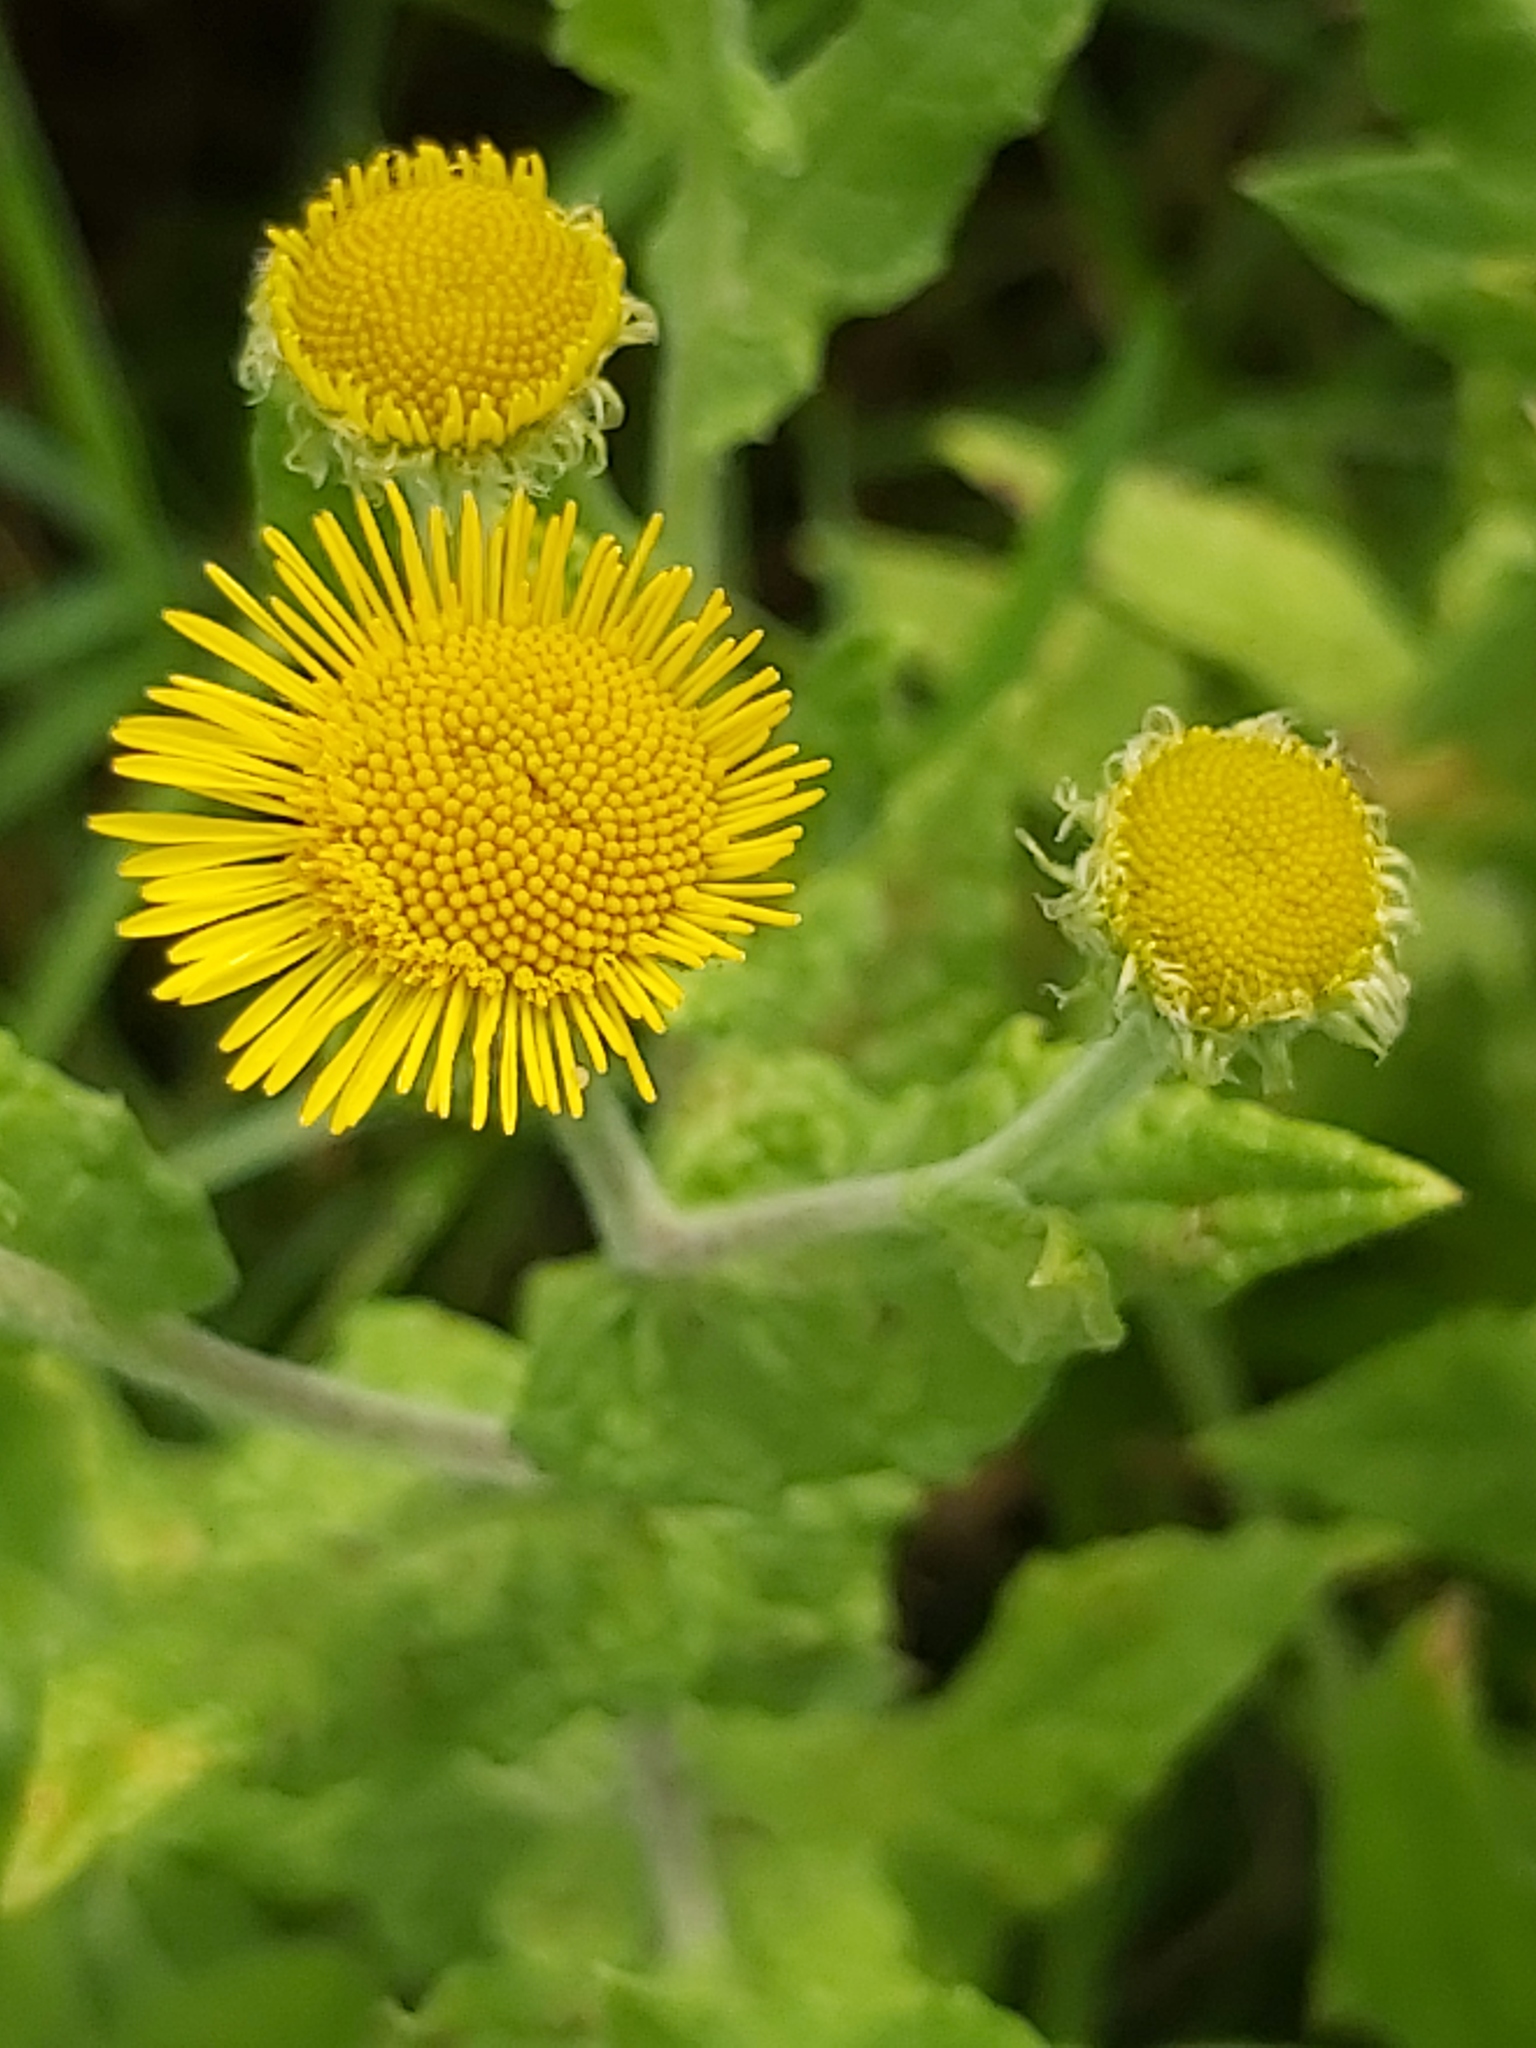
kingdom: Plantae
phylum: Tracheophyta
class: Magnoliopsida
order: Asterales
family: Asteraceae
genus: Pulicaria
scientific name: Pulicaria dysenterica
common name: Common fleabane
